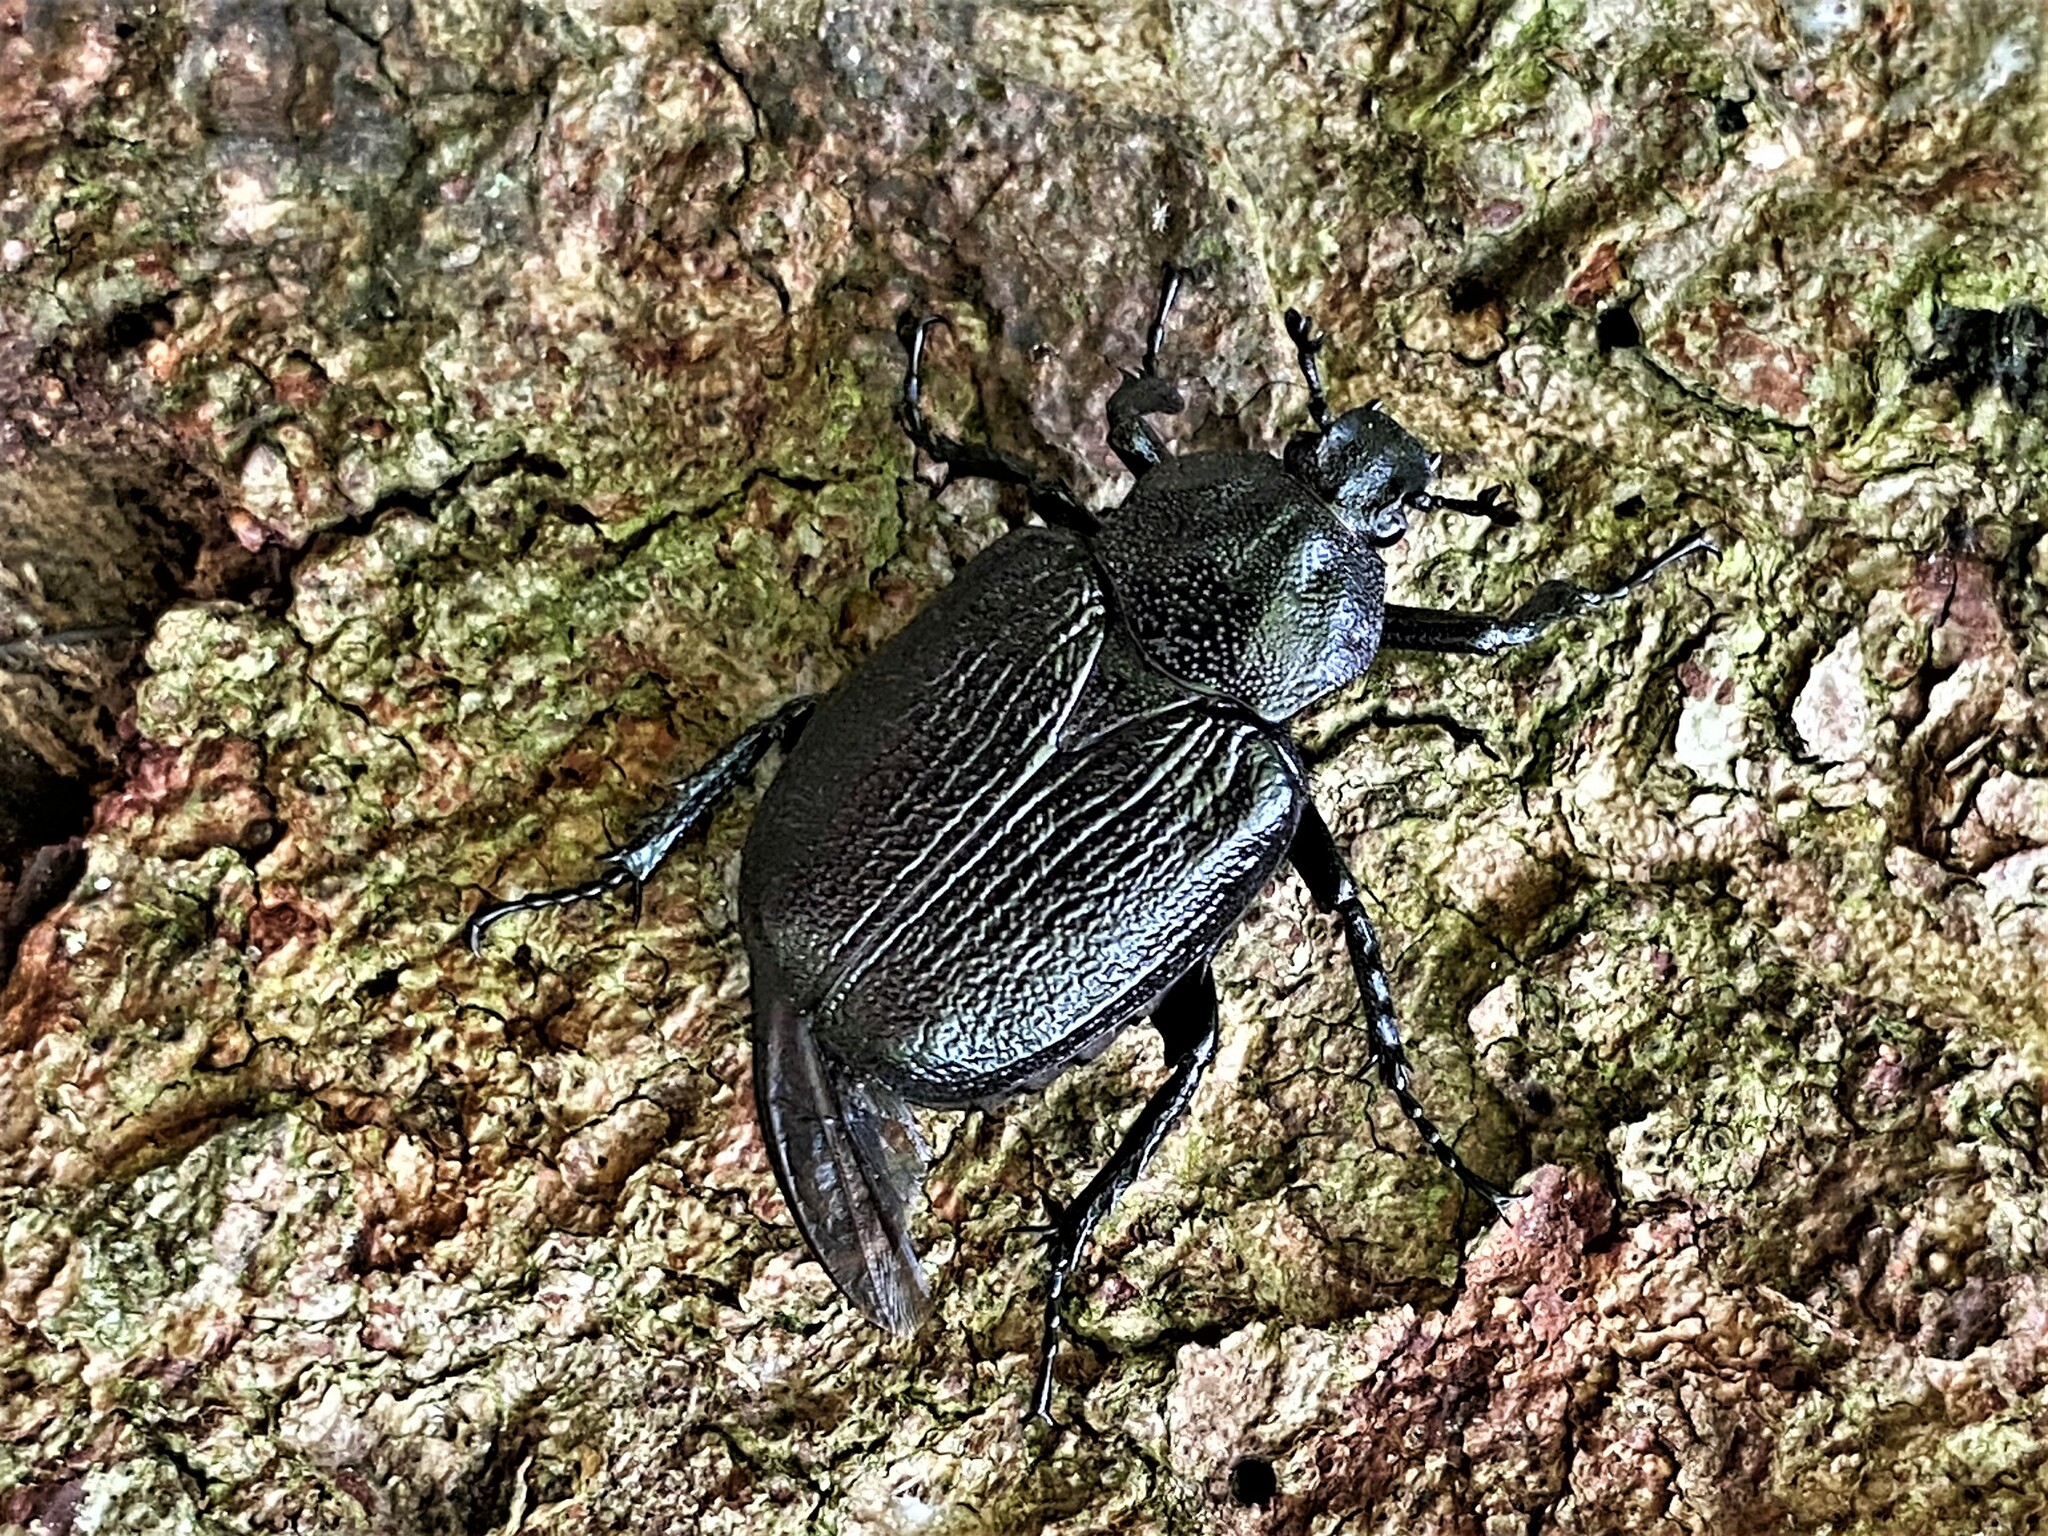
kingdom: Animalia
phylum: Arthropoda
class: Insecta
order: Coleoptera
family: Scarabaeidae
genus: Osmoderma
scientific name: Osmoderma scabra
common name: Rough hermit beetle
